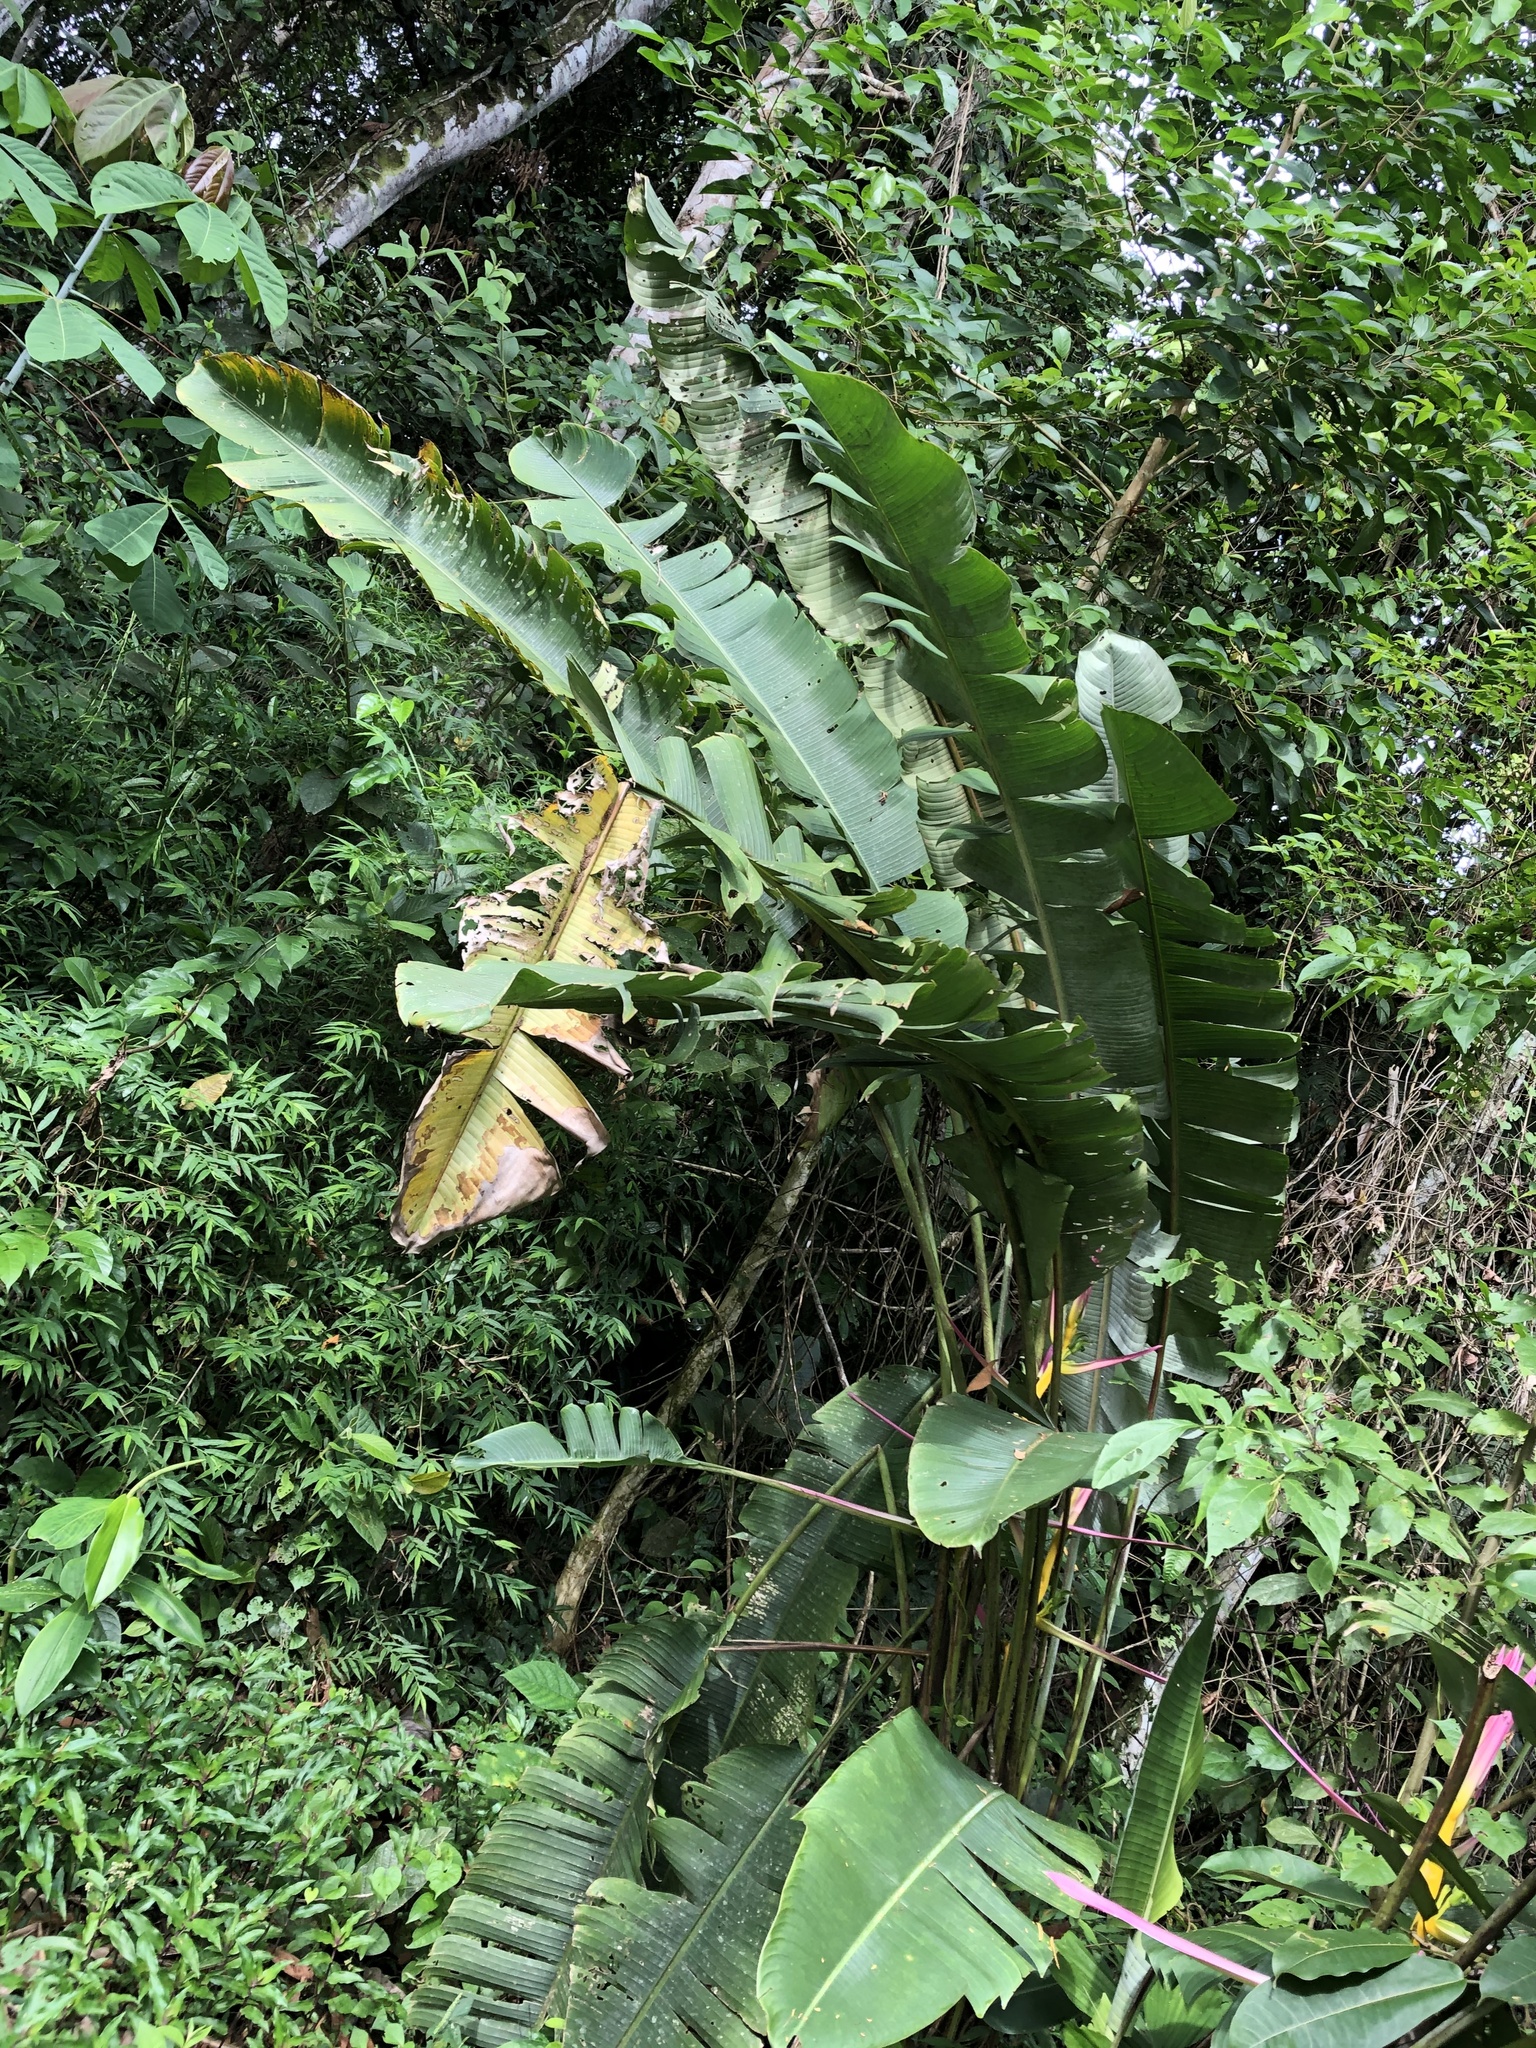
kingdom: Plantae
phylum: Tracheophyta
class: Liliopsida
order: Zingiberales
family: Heliconiaceae
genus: Heliconia
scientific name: Heliconia aemygdiana
